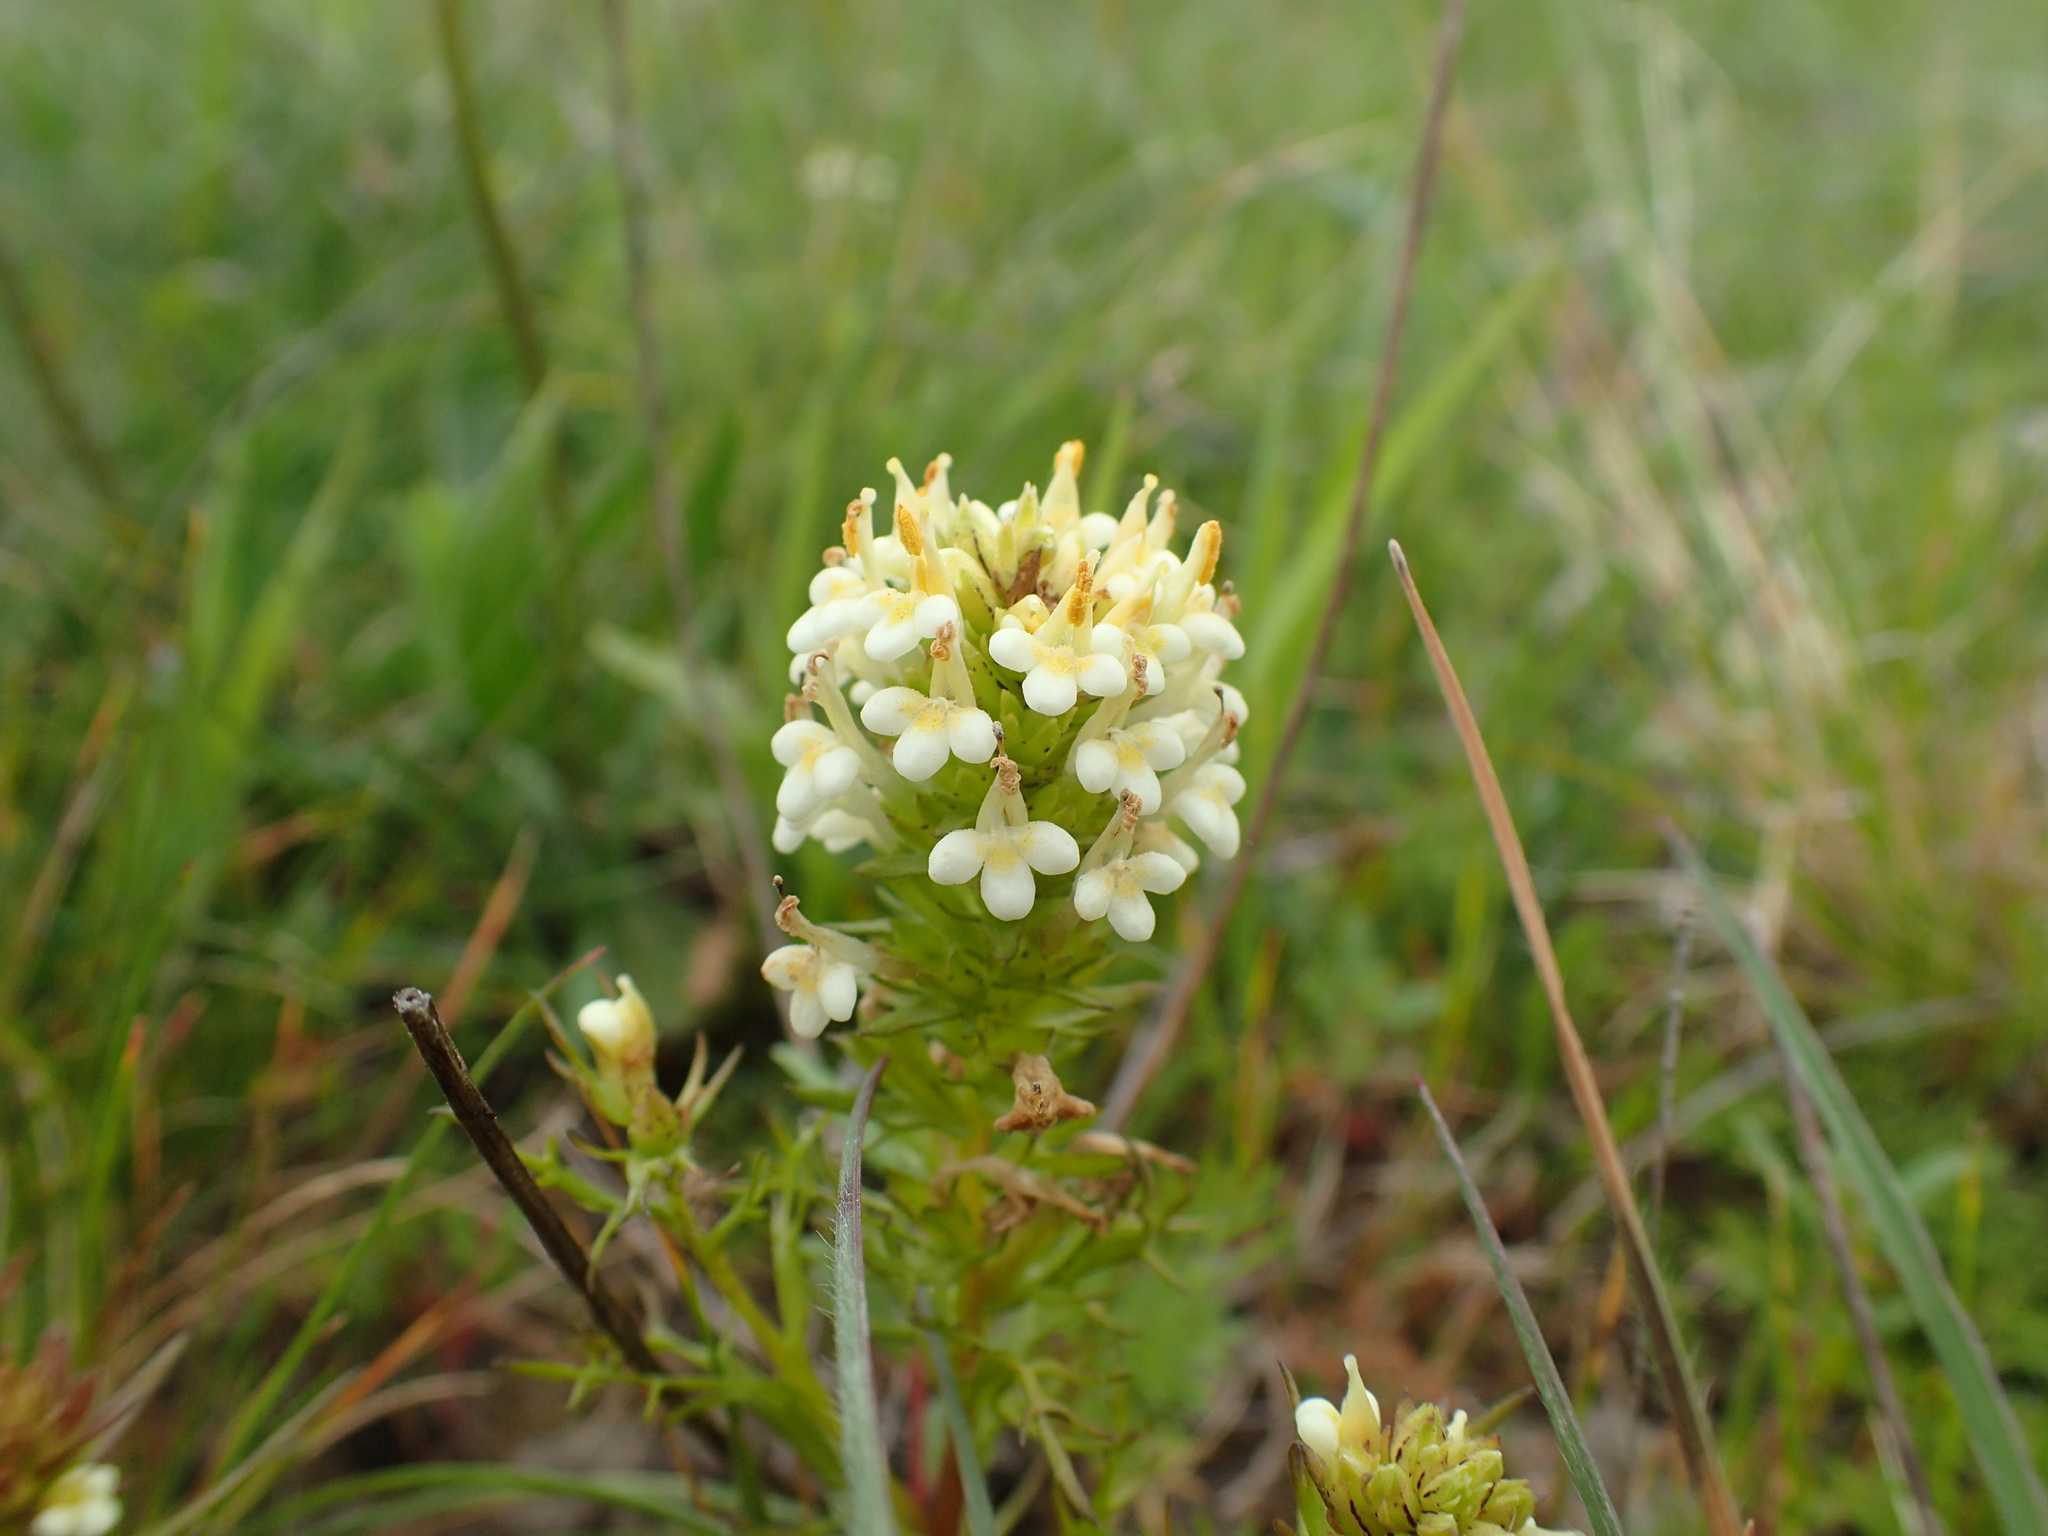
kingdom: Plantae
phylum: Tracheophyta
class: Magnoliopsida
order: Lamiales
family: Orobanchaceae
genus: Triphysaria
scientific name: Triphysaria floribunda
